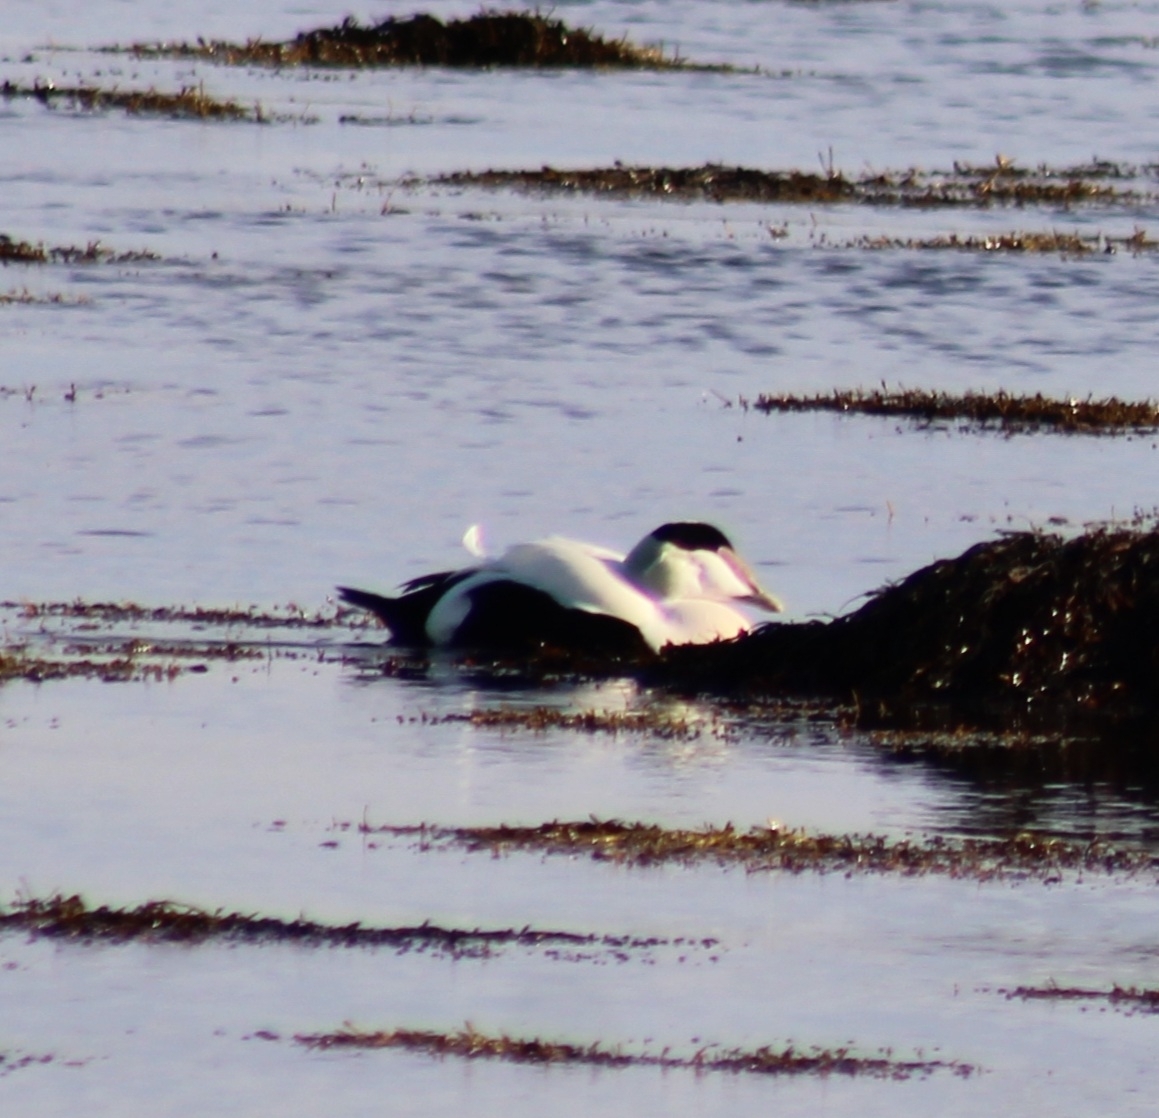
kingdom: Animalia
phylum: Chordata
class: Aves
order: Anseriformes
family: Anatidae
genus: Somateria
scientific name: Somateria mollissima
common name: Common eider
